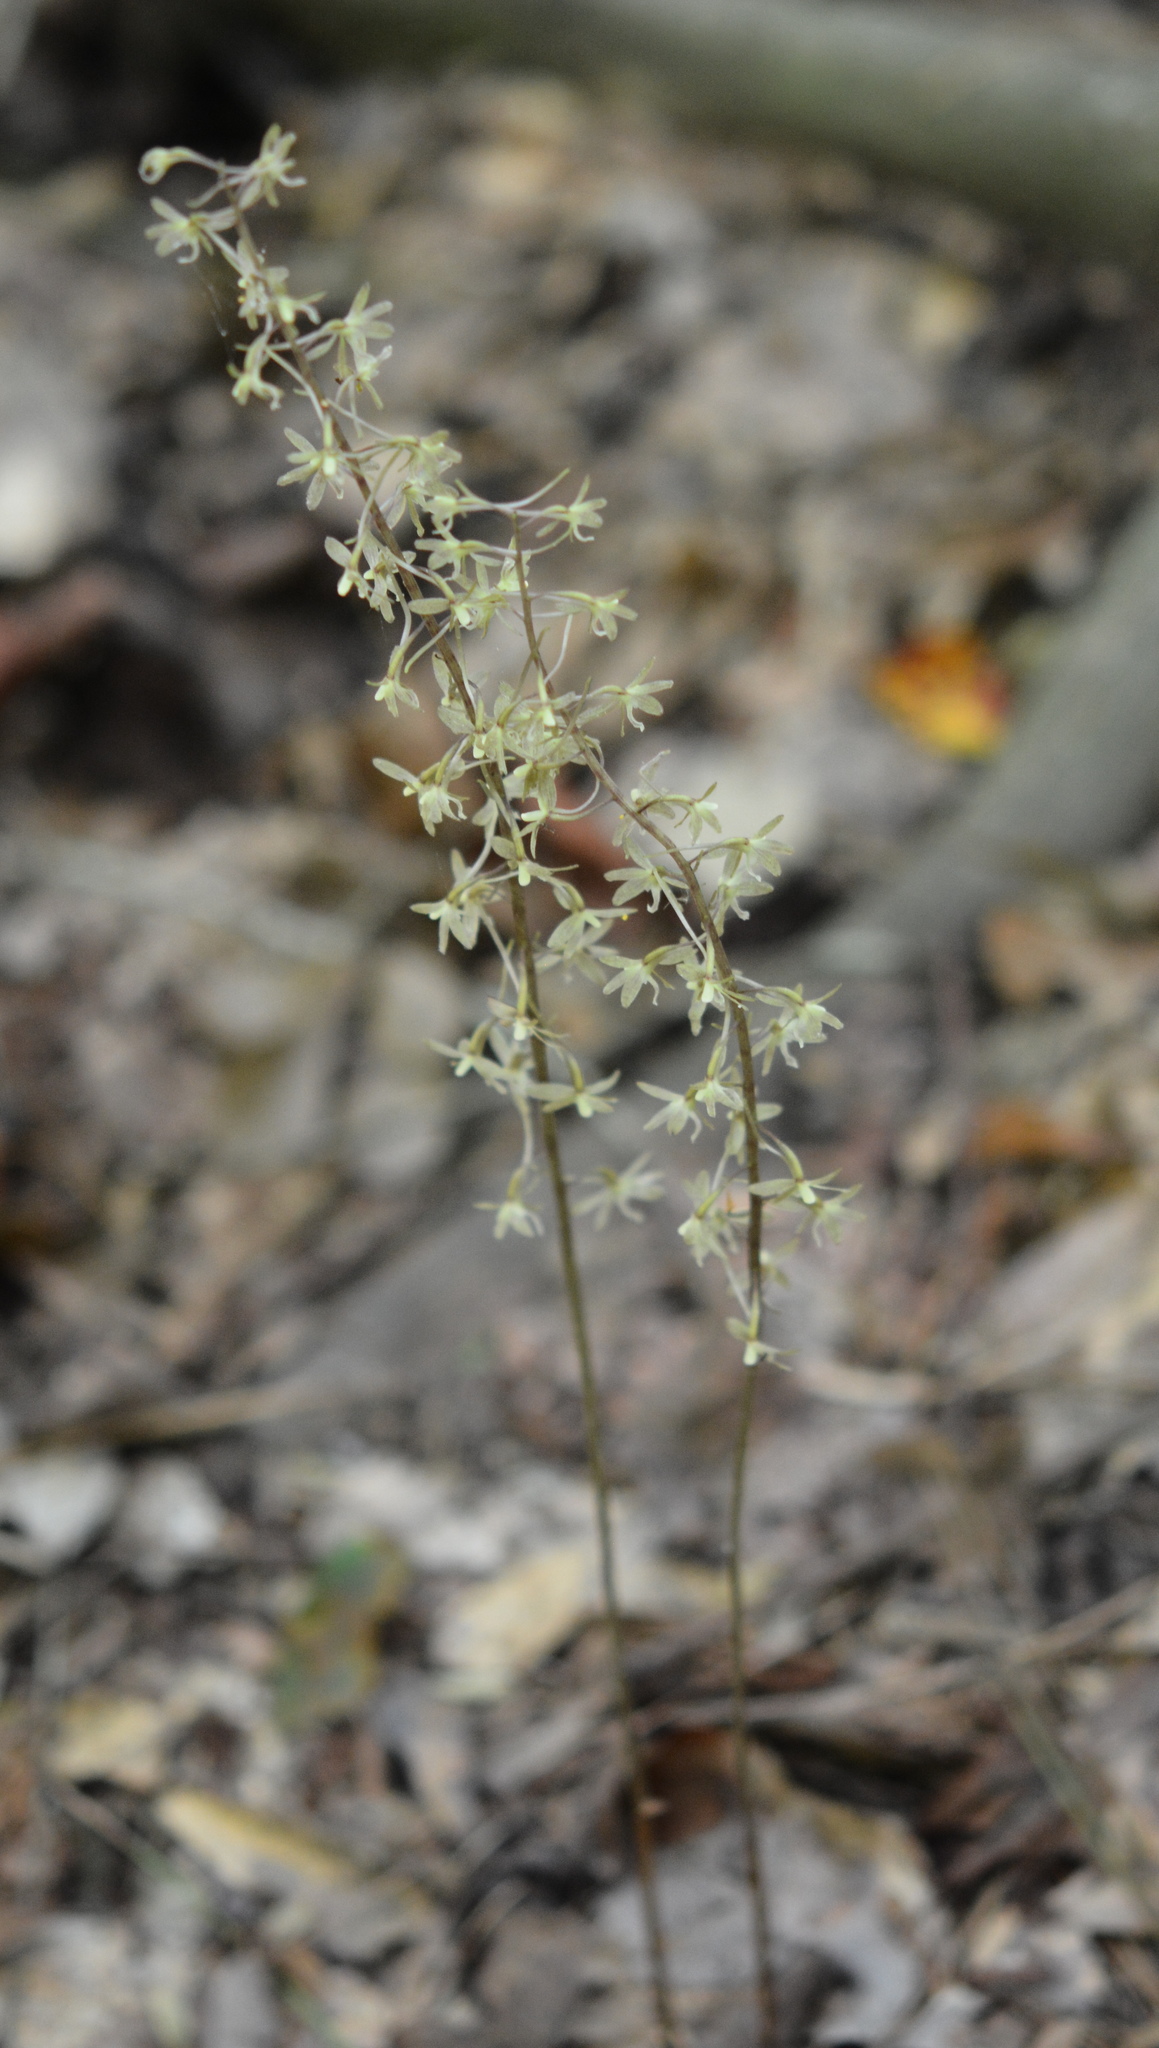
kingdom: Plantae
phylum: Tracheophyta
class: Liliopsida
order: Asparagales
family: Orchidaceae
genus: Tipularia
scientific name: Tipularia discolor
